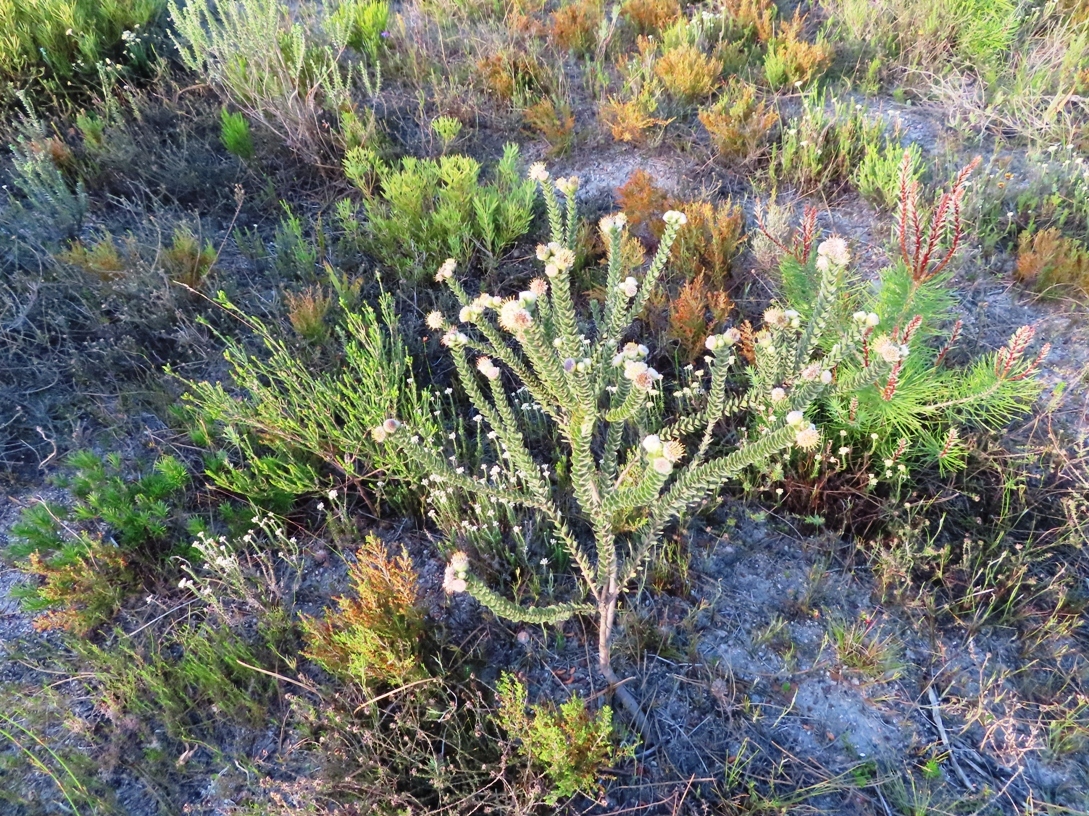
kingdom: Plantae
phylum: Tracheophyta
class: Magnoliopsida
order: Proteales
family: Proteaceae
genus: Leucospermum
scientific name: Leucospermum truncatulum
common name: Oval-leaf pincushion
